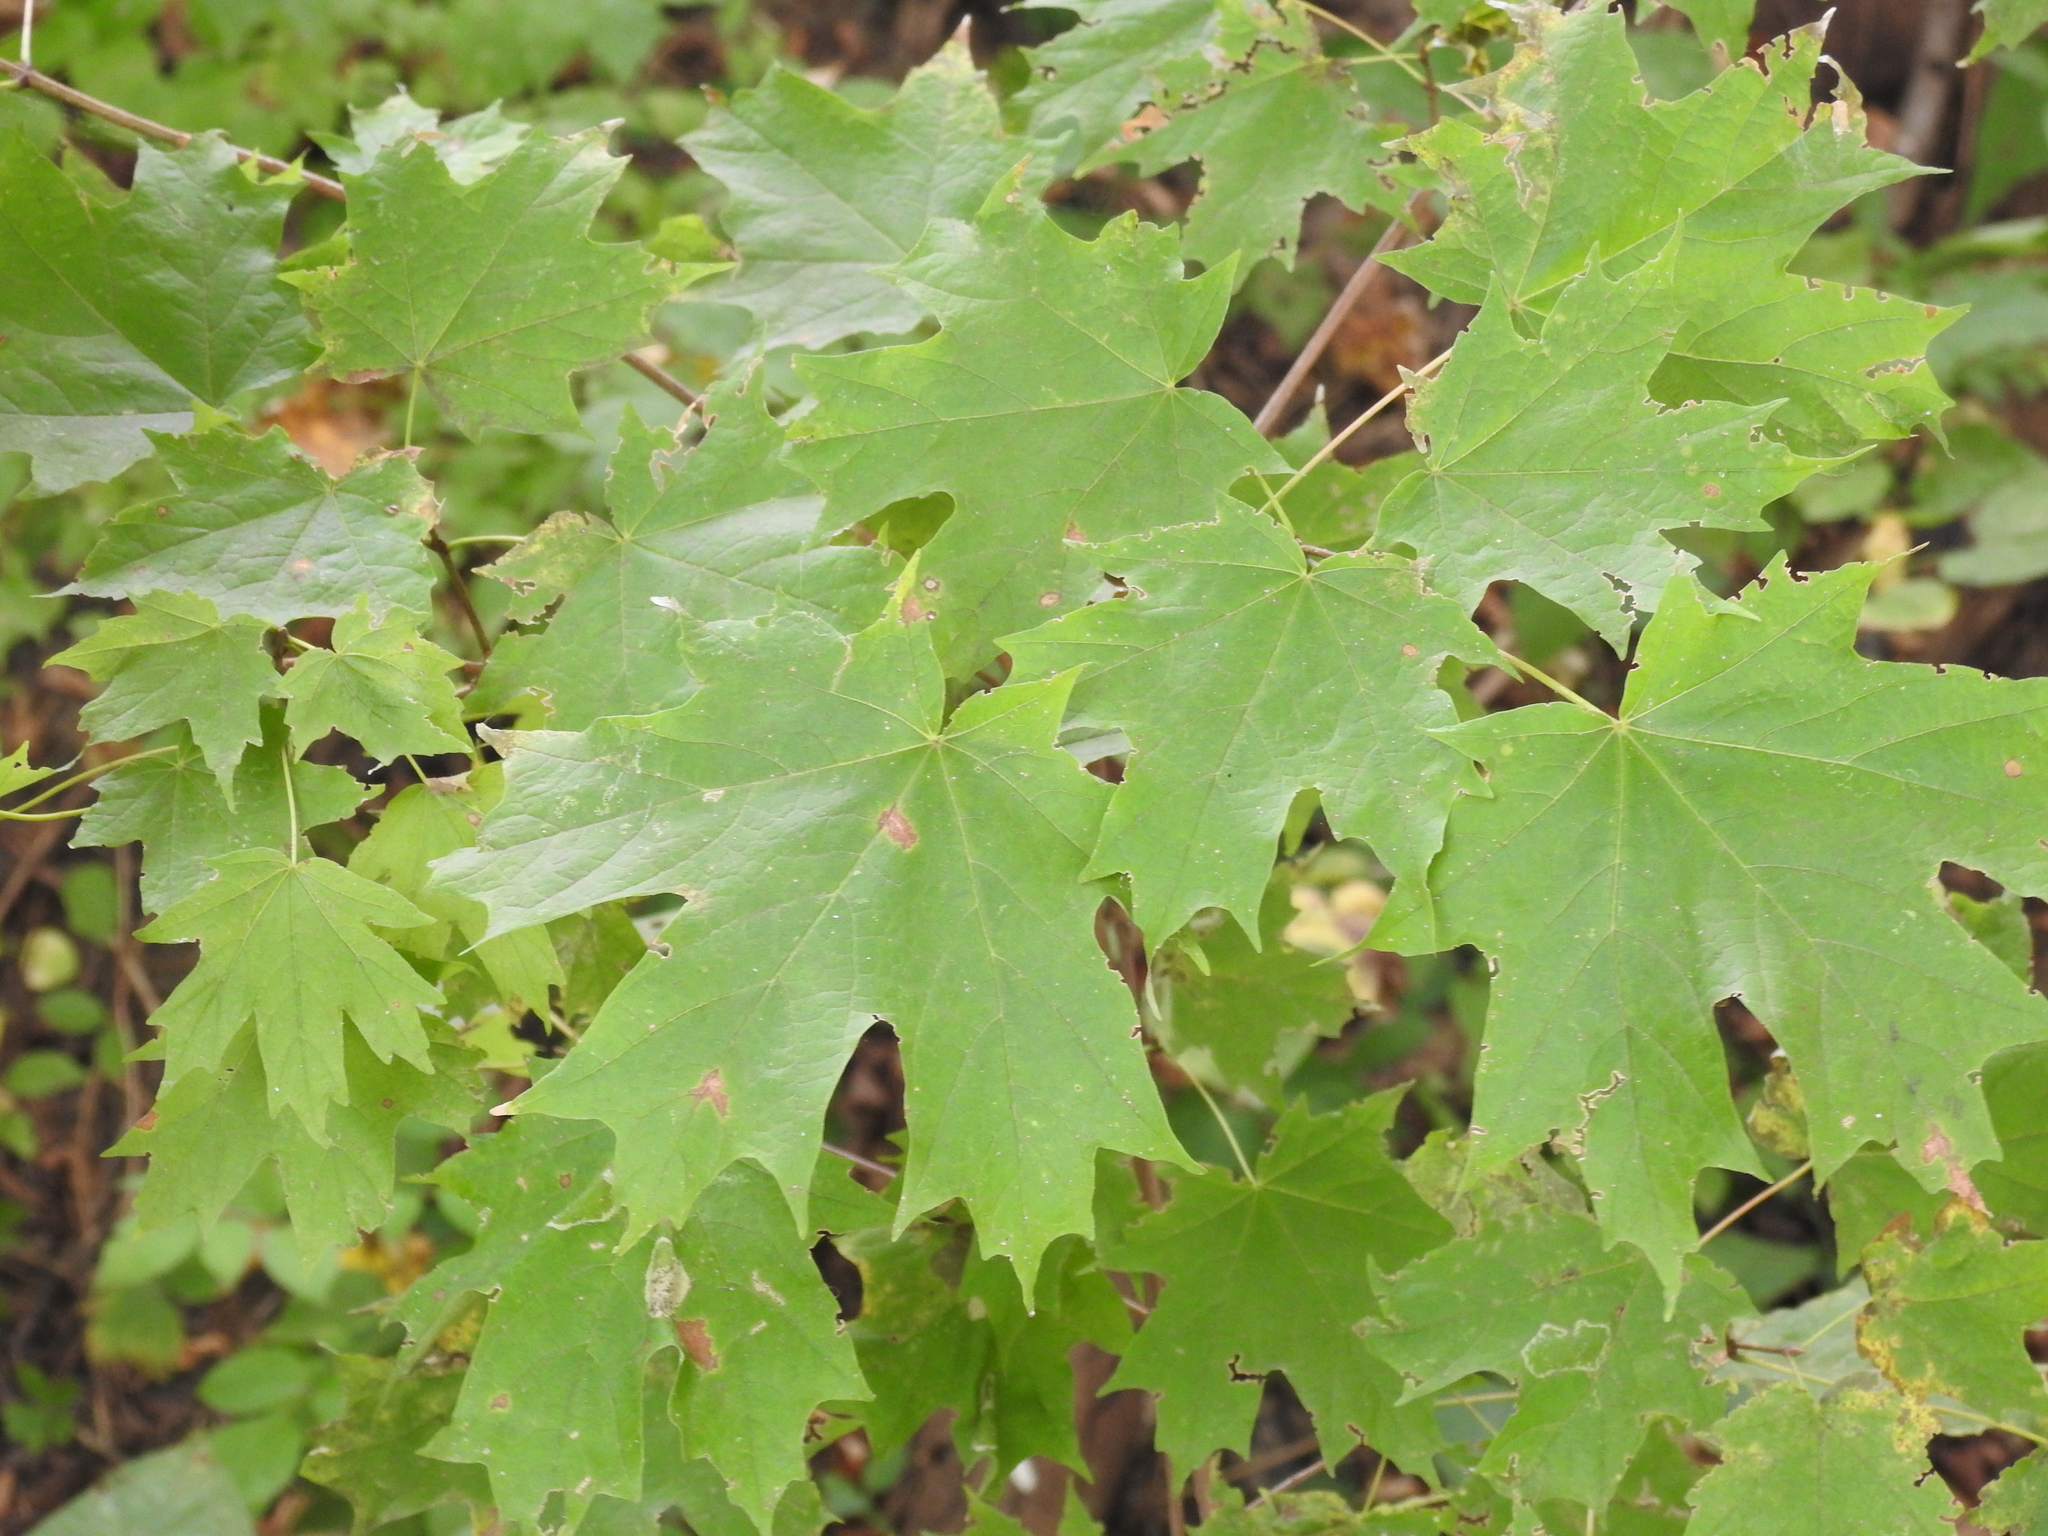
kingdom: Plantae
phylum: Tracheophyta
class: Magnoliopsida
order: Sapindales
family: Sapindaceae
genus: Acer
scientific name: Acer saccharum
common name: Sugar maple
